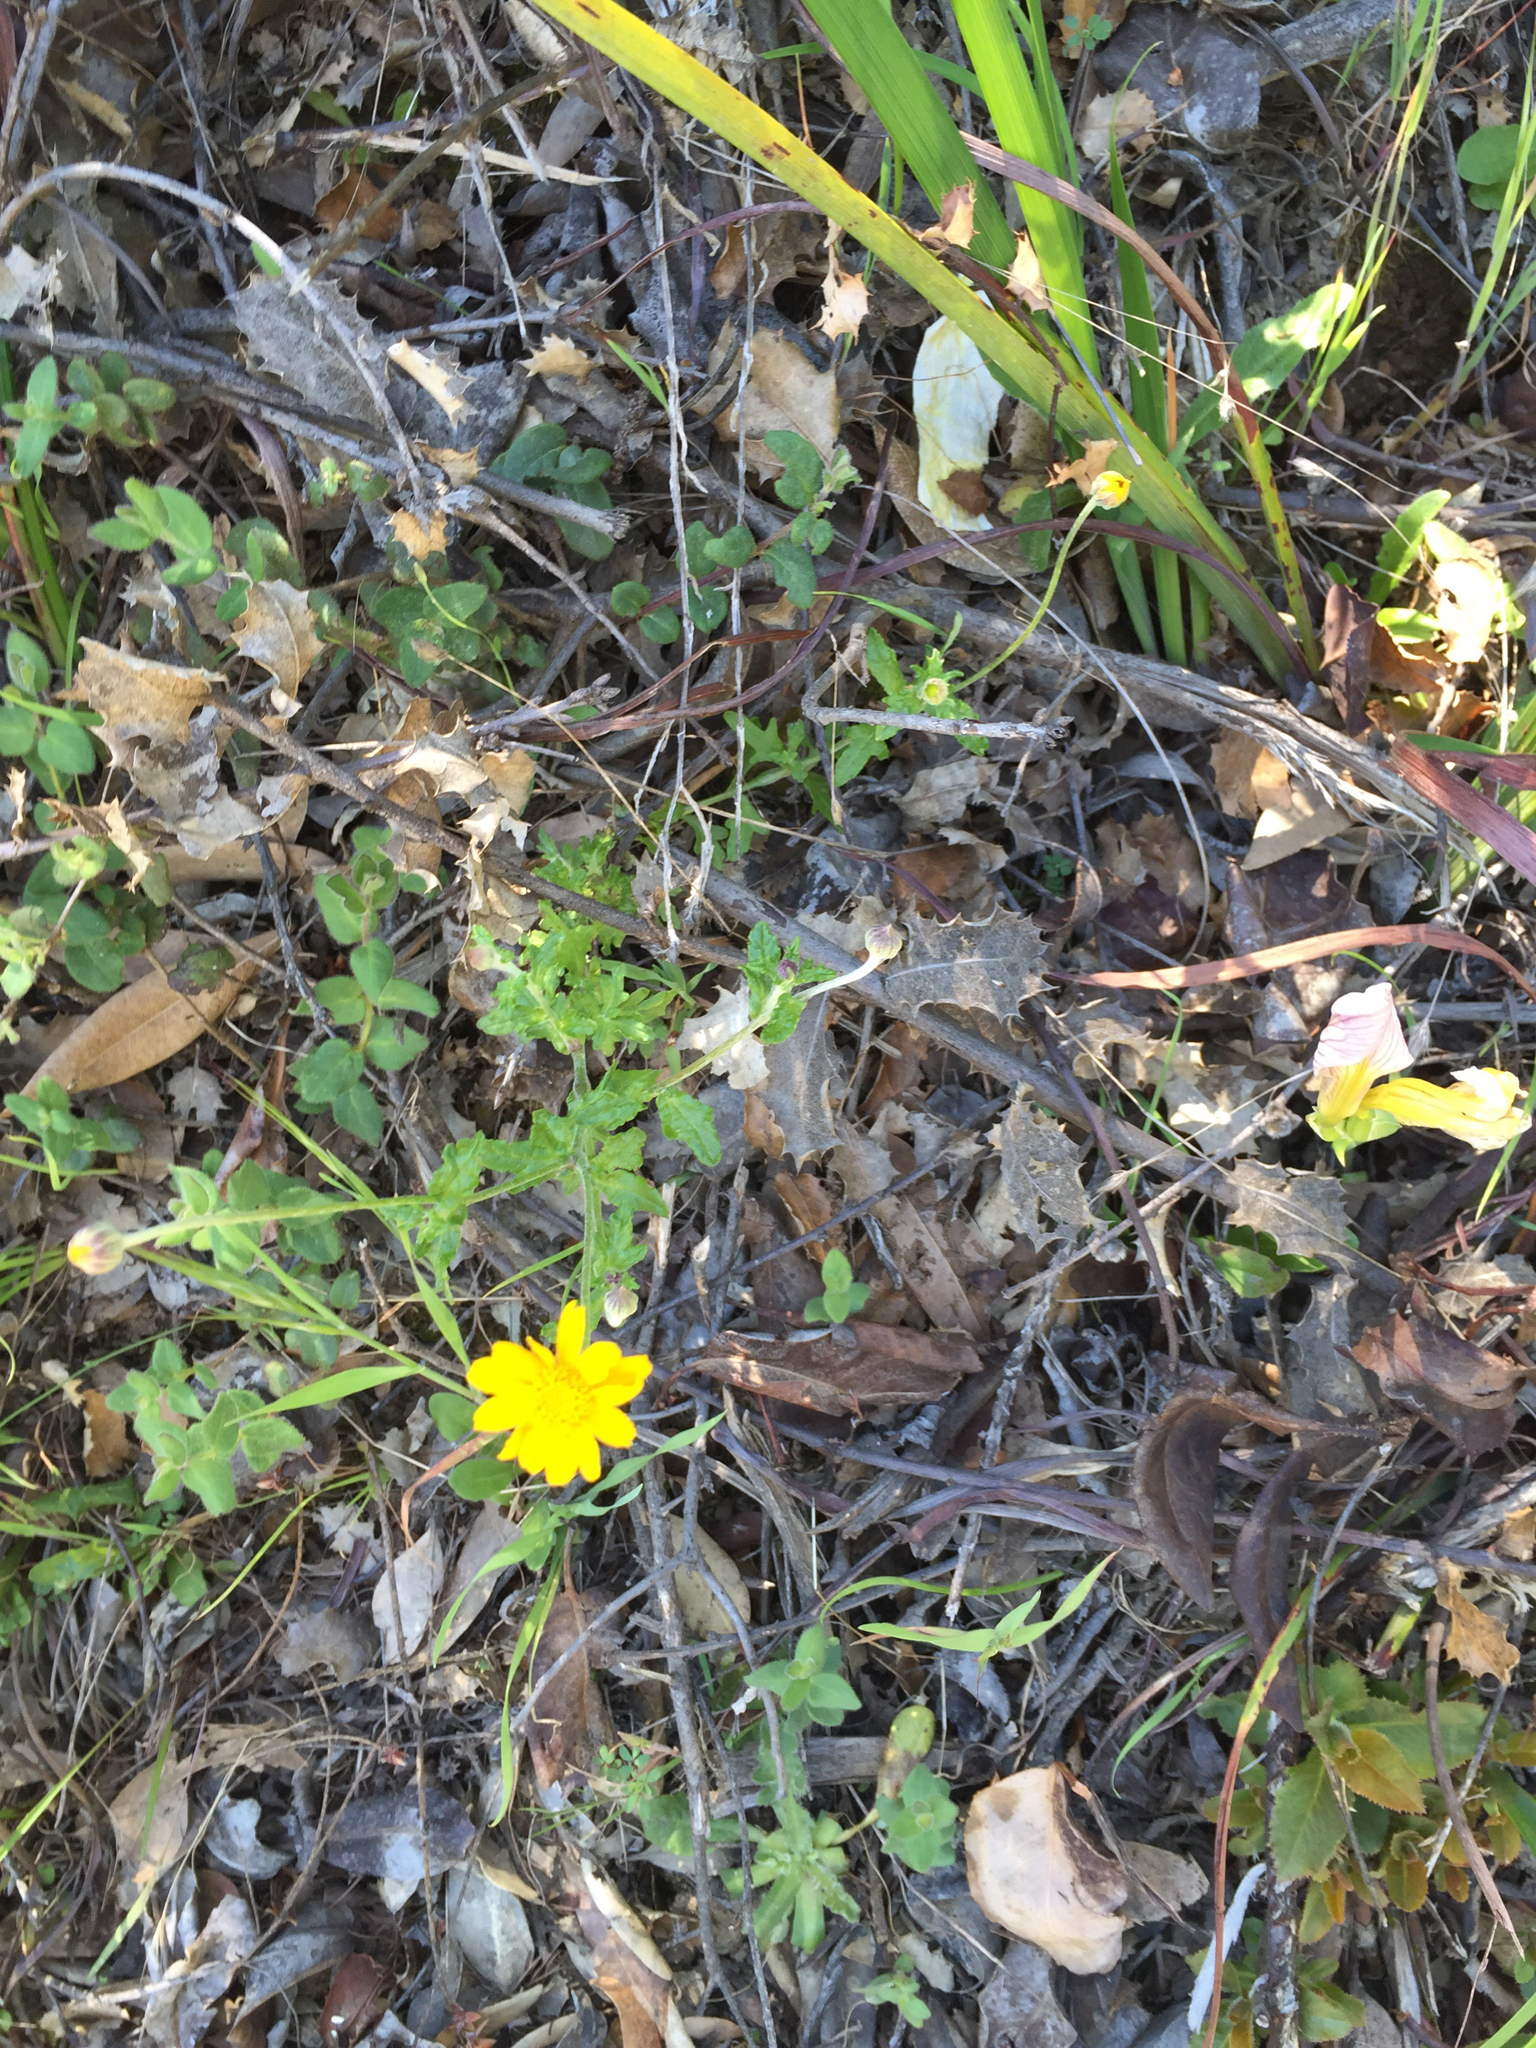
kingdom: Plantae
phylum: Tracheophyta
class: Magnoliopsida
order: Asterales
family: Asteraceae
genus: Eriophyllum
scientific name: Eriophyllum lanatum
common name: Common woolly-sunflower
